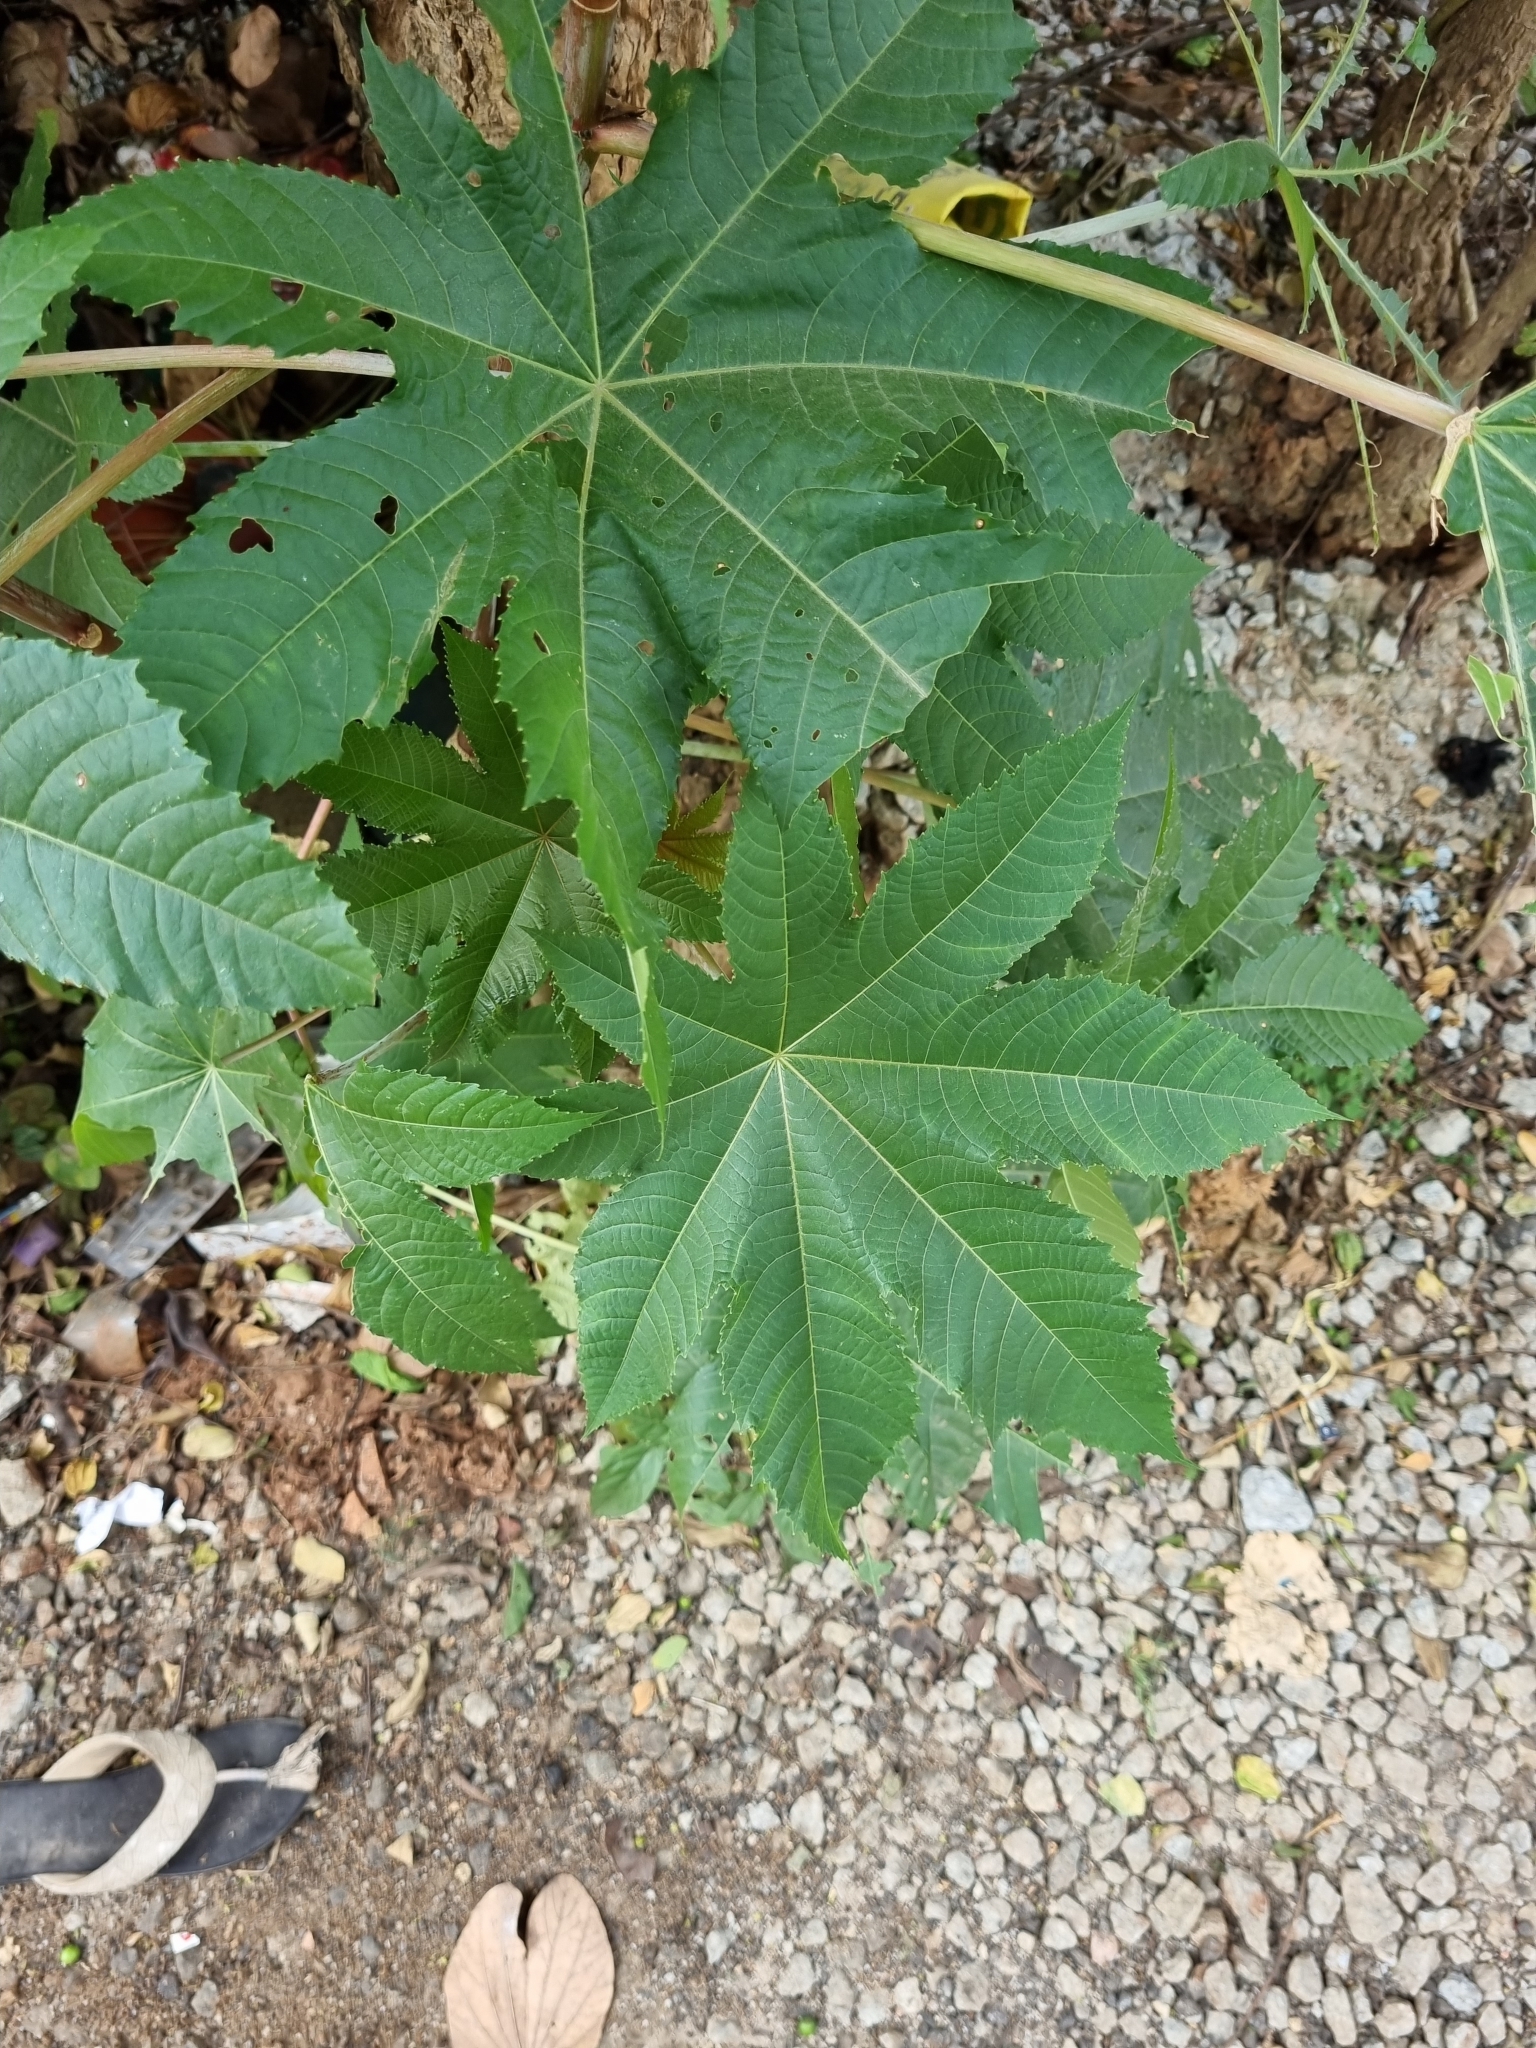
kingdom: Plantae
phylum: Tracheophyta
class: Magnoliopsida
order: Malpighiales
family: Euphorbiaceae
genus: Ricinus
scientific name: Ricinus communis
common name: Castor-oil-plant
